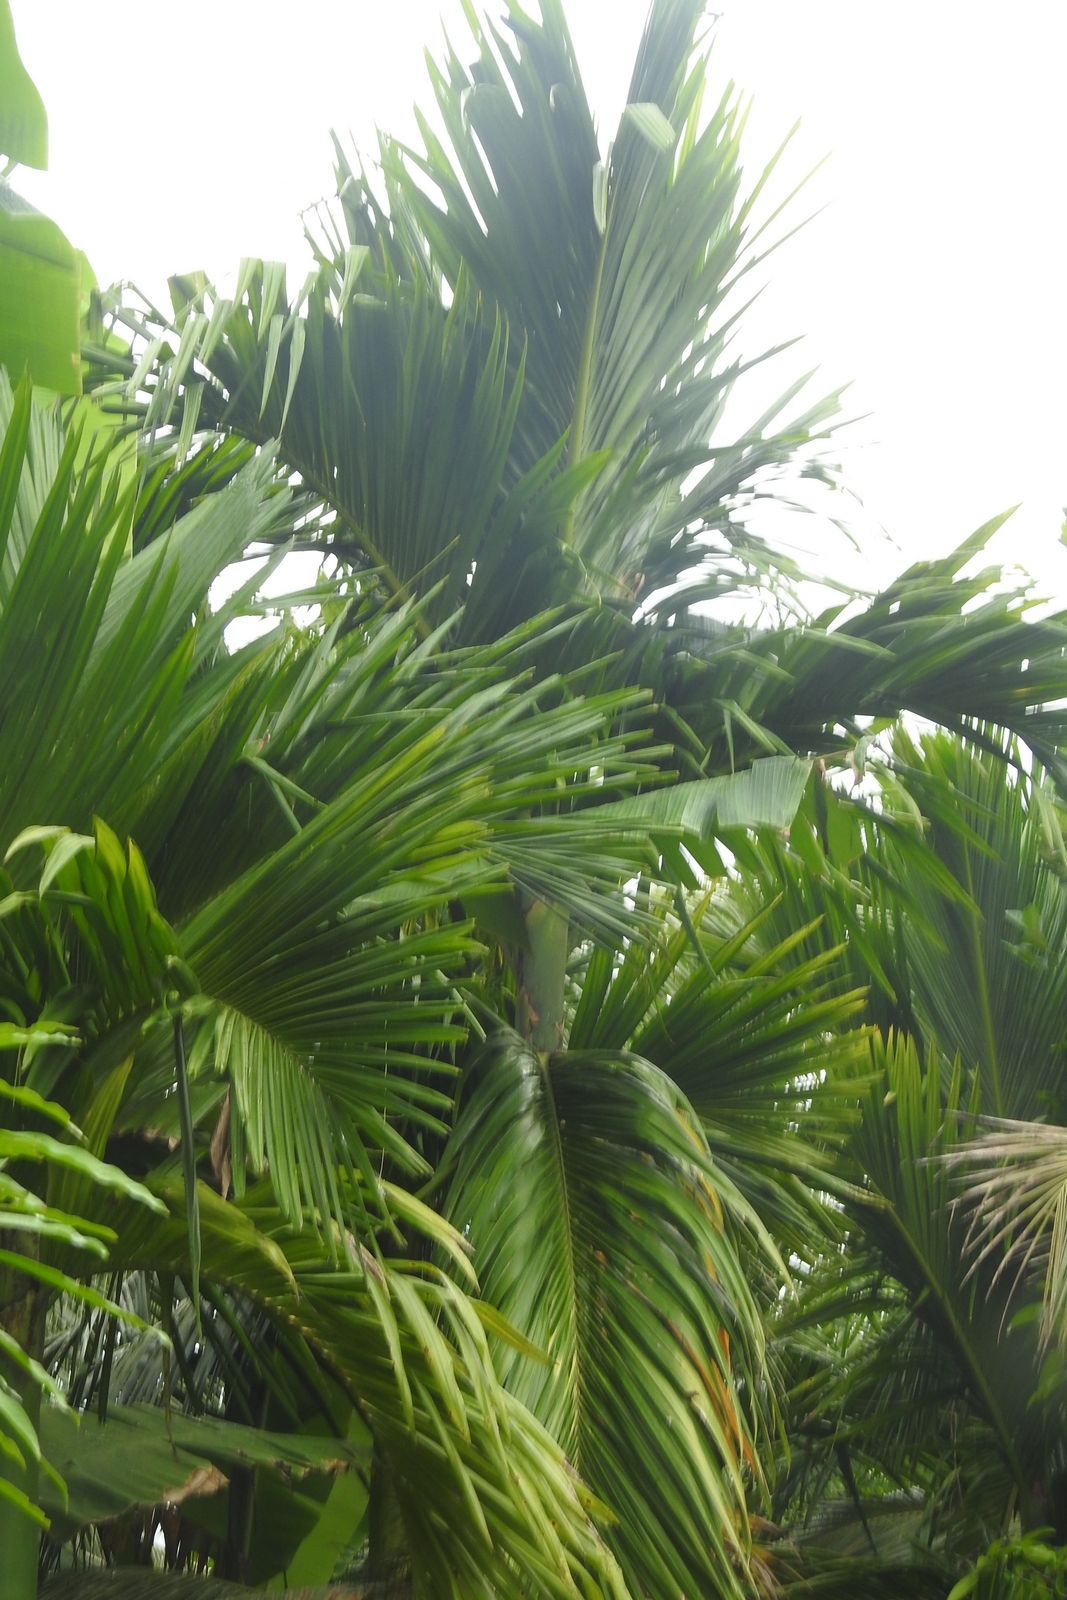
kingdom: Plantae
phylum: Tracheophyta
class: Liliopsida
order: Arecales
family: Arecaceae
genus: Areca
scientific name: Areca catechu
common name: Indian-nut
